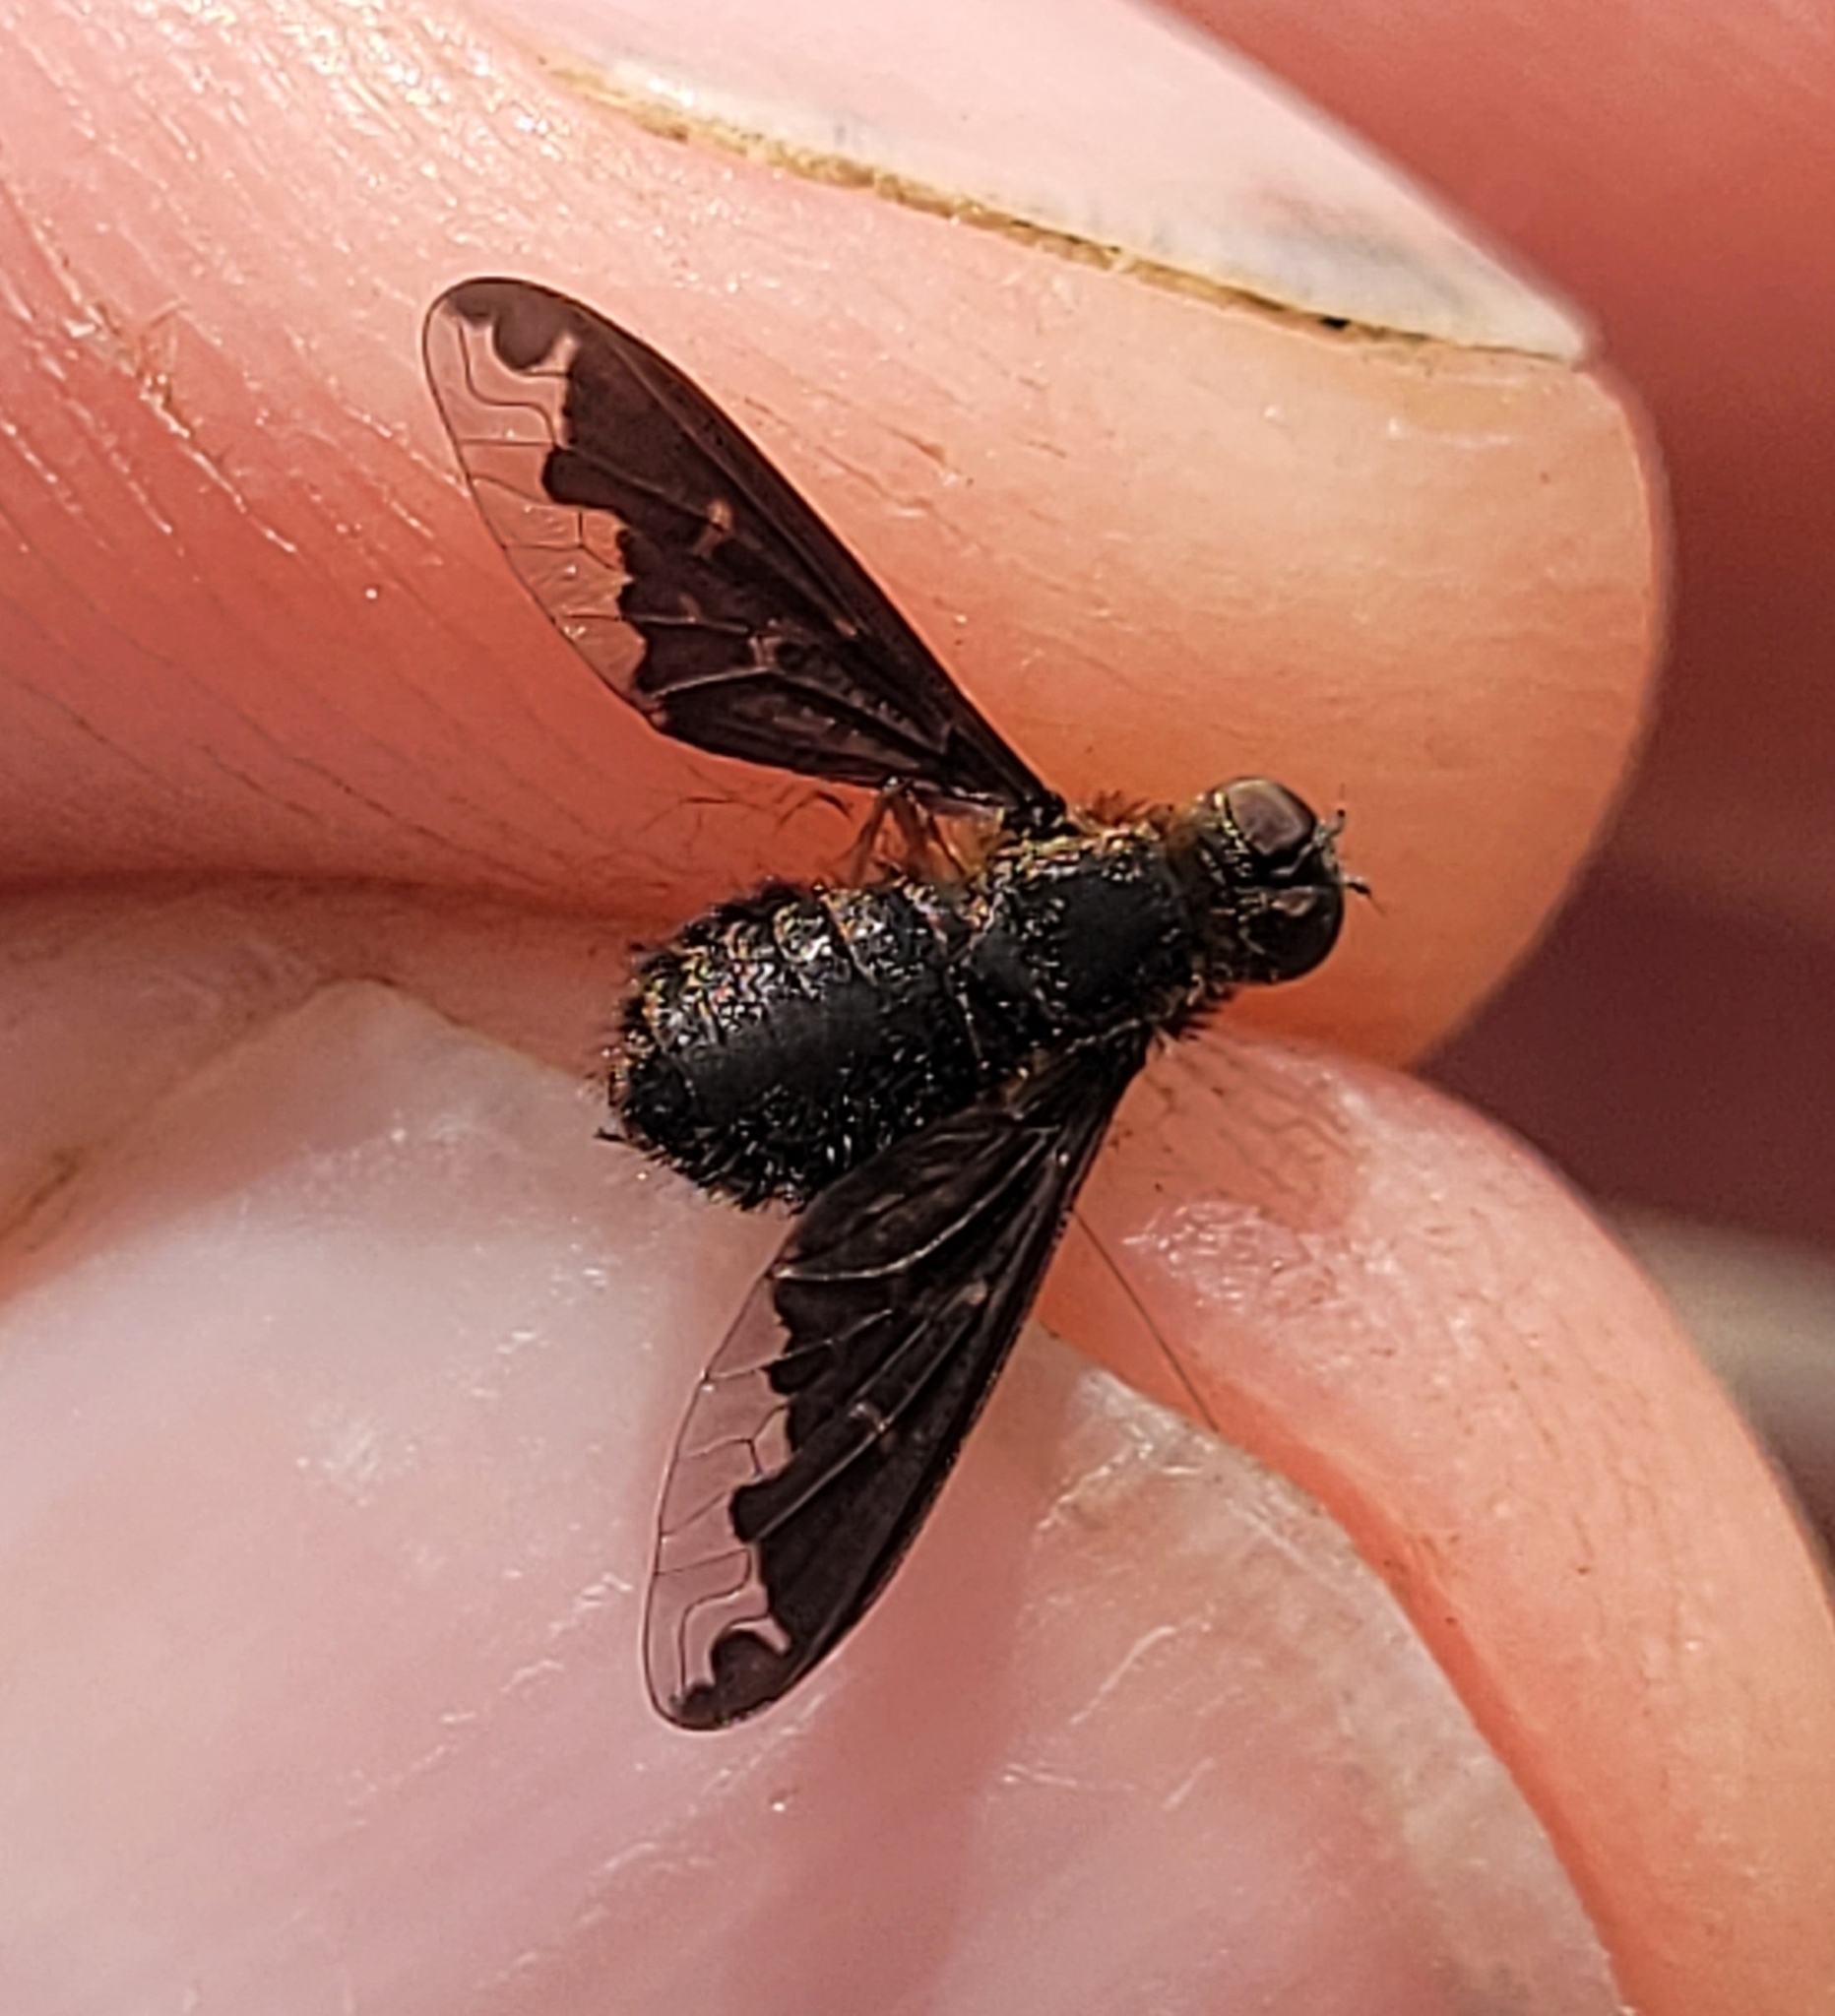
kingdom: Animalia
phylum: Arthropoda
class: Insecta
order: Diptera
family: Bombyliidae
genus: Hemipenthes
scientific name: Hemipenthes sinuosus
